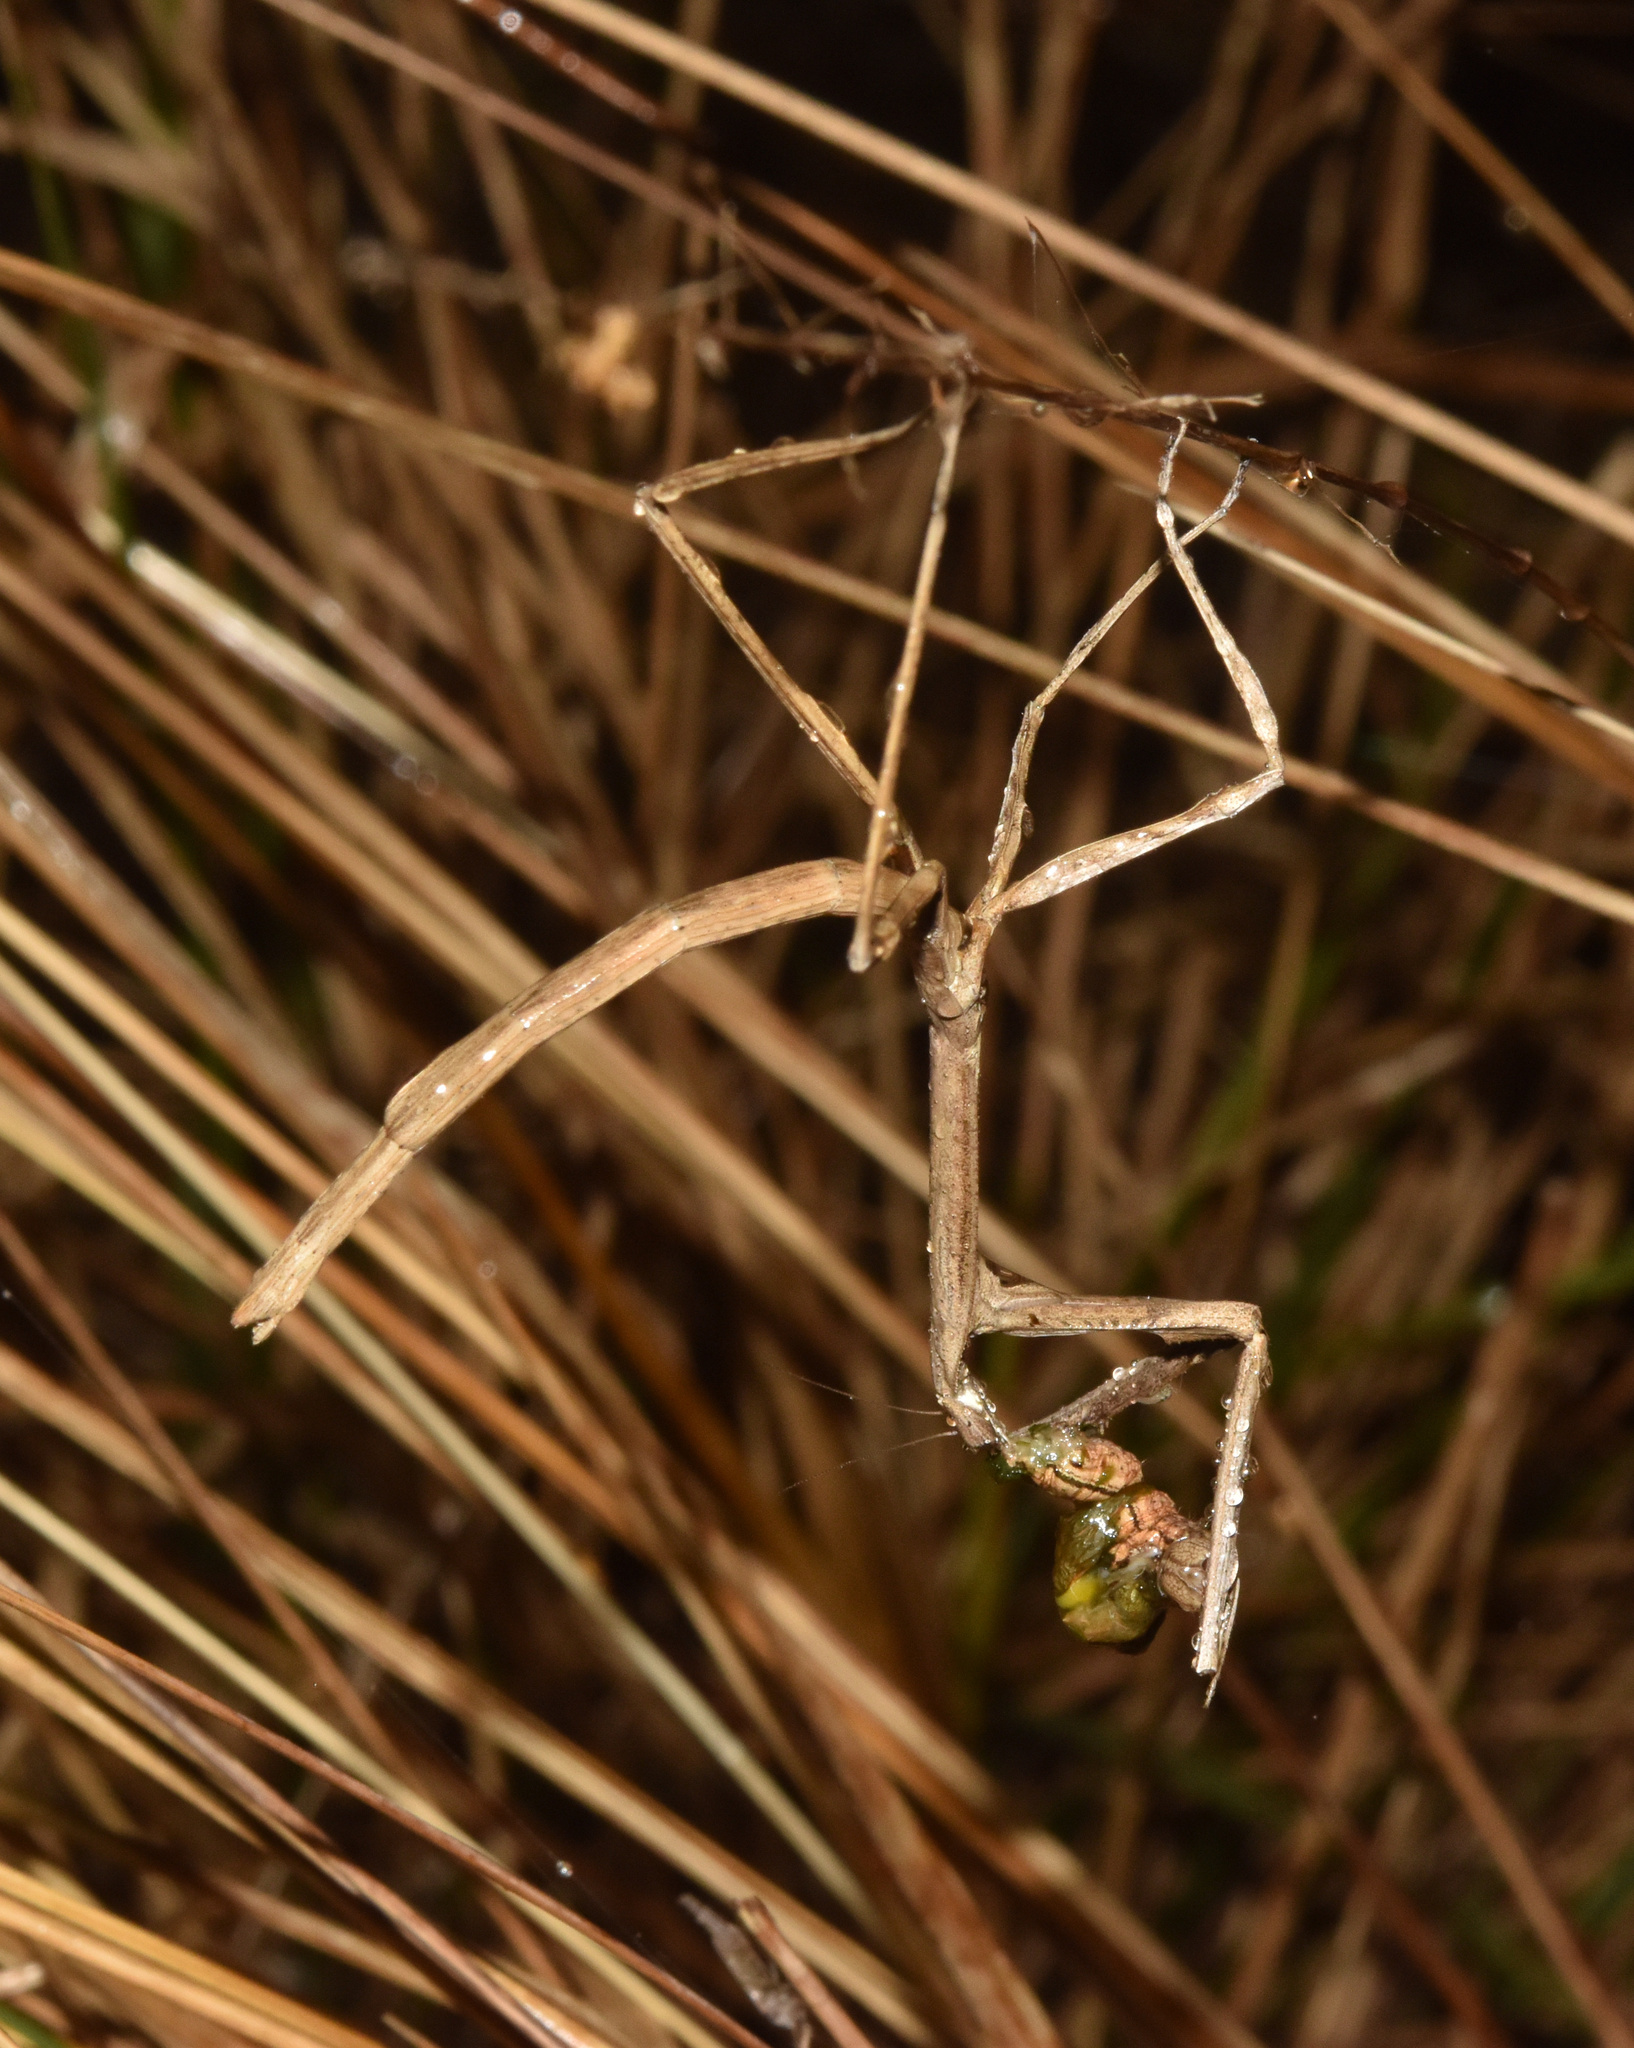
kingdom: Animalia
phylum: Arthropoda
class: Insecta
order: Mantodea
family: Deroplatyidae
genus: Danuria
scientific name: Danuria thunbergi
